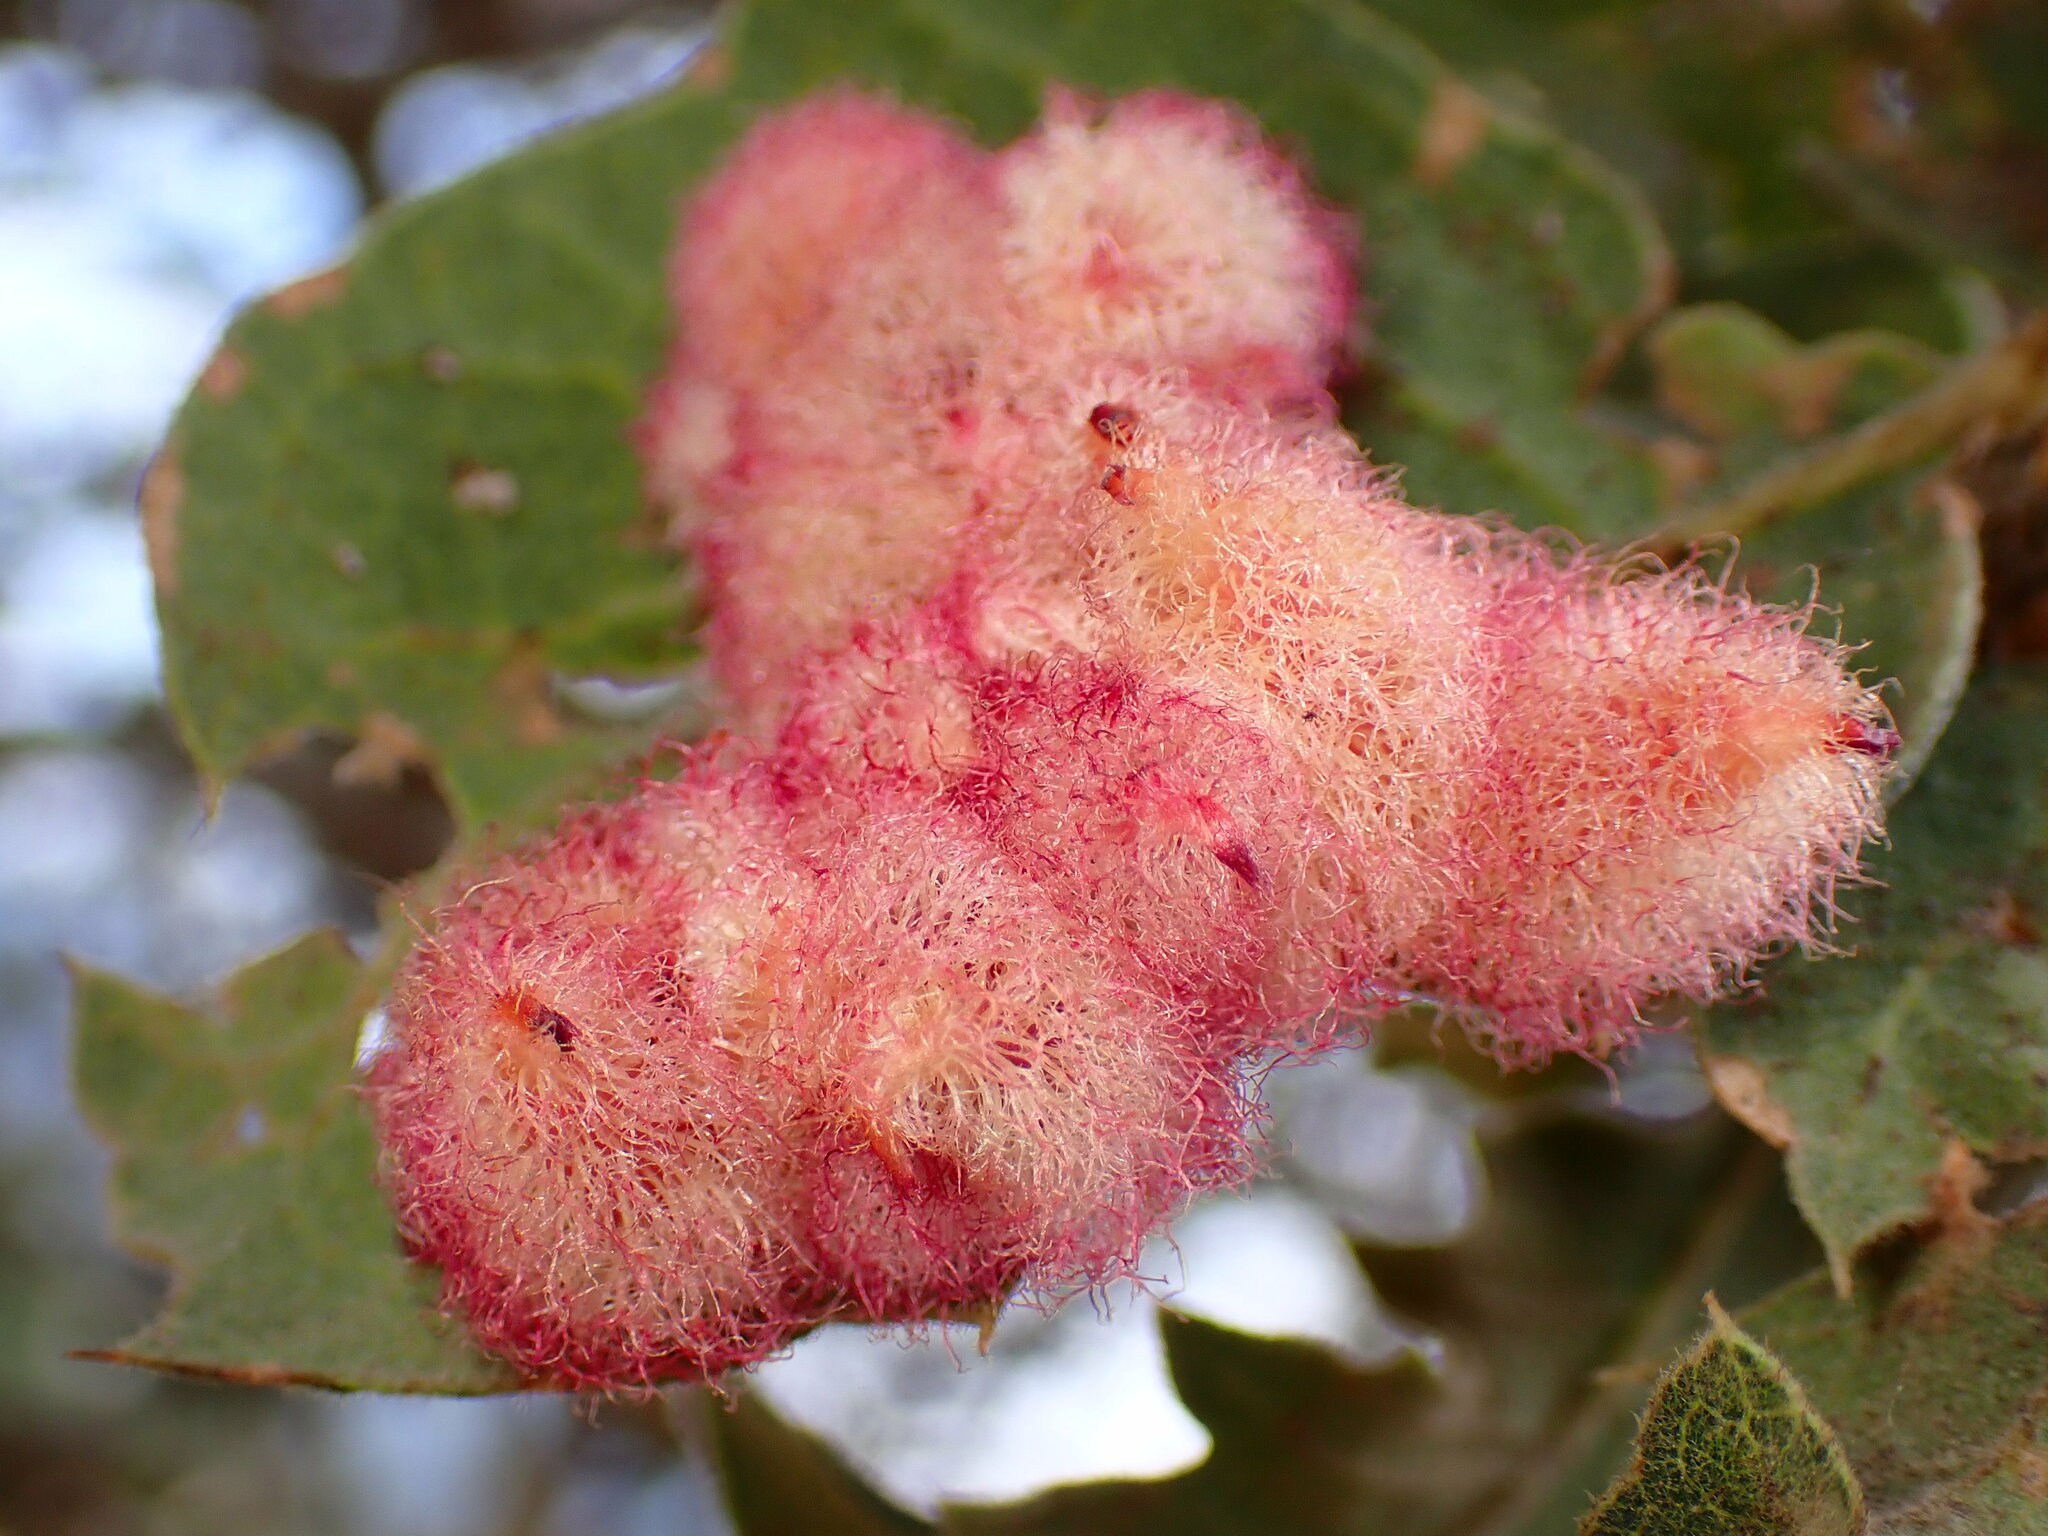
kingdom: Animalia
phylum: Arthropoda
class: Insecta
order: Hymenoptera
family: Cynipidae
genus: Andricus
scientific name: Andricus
